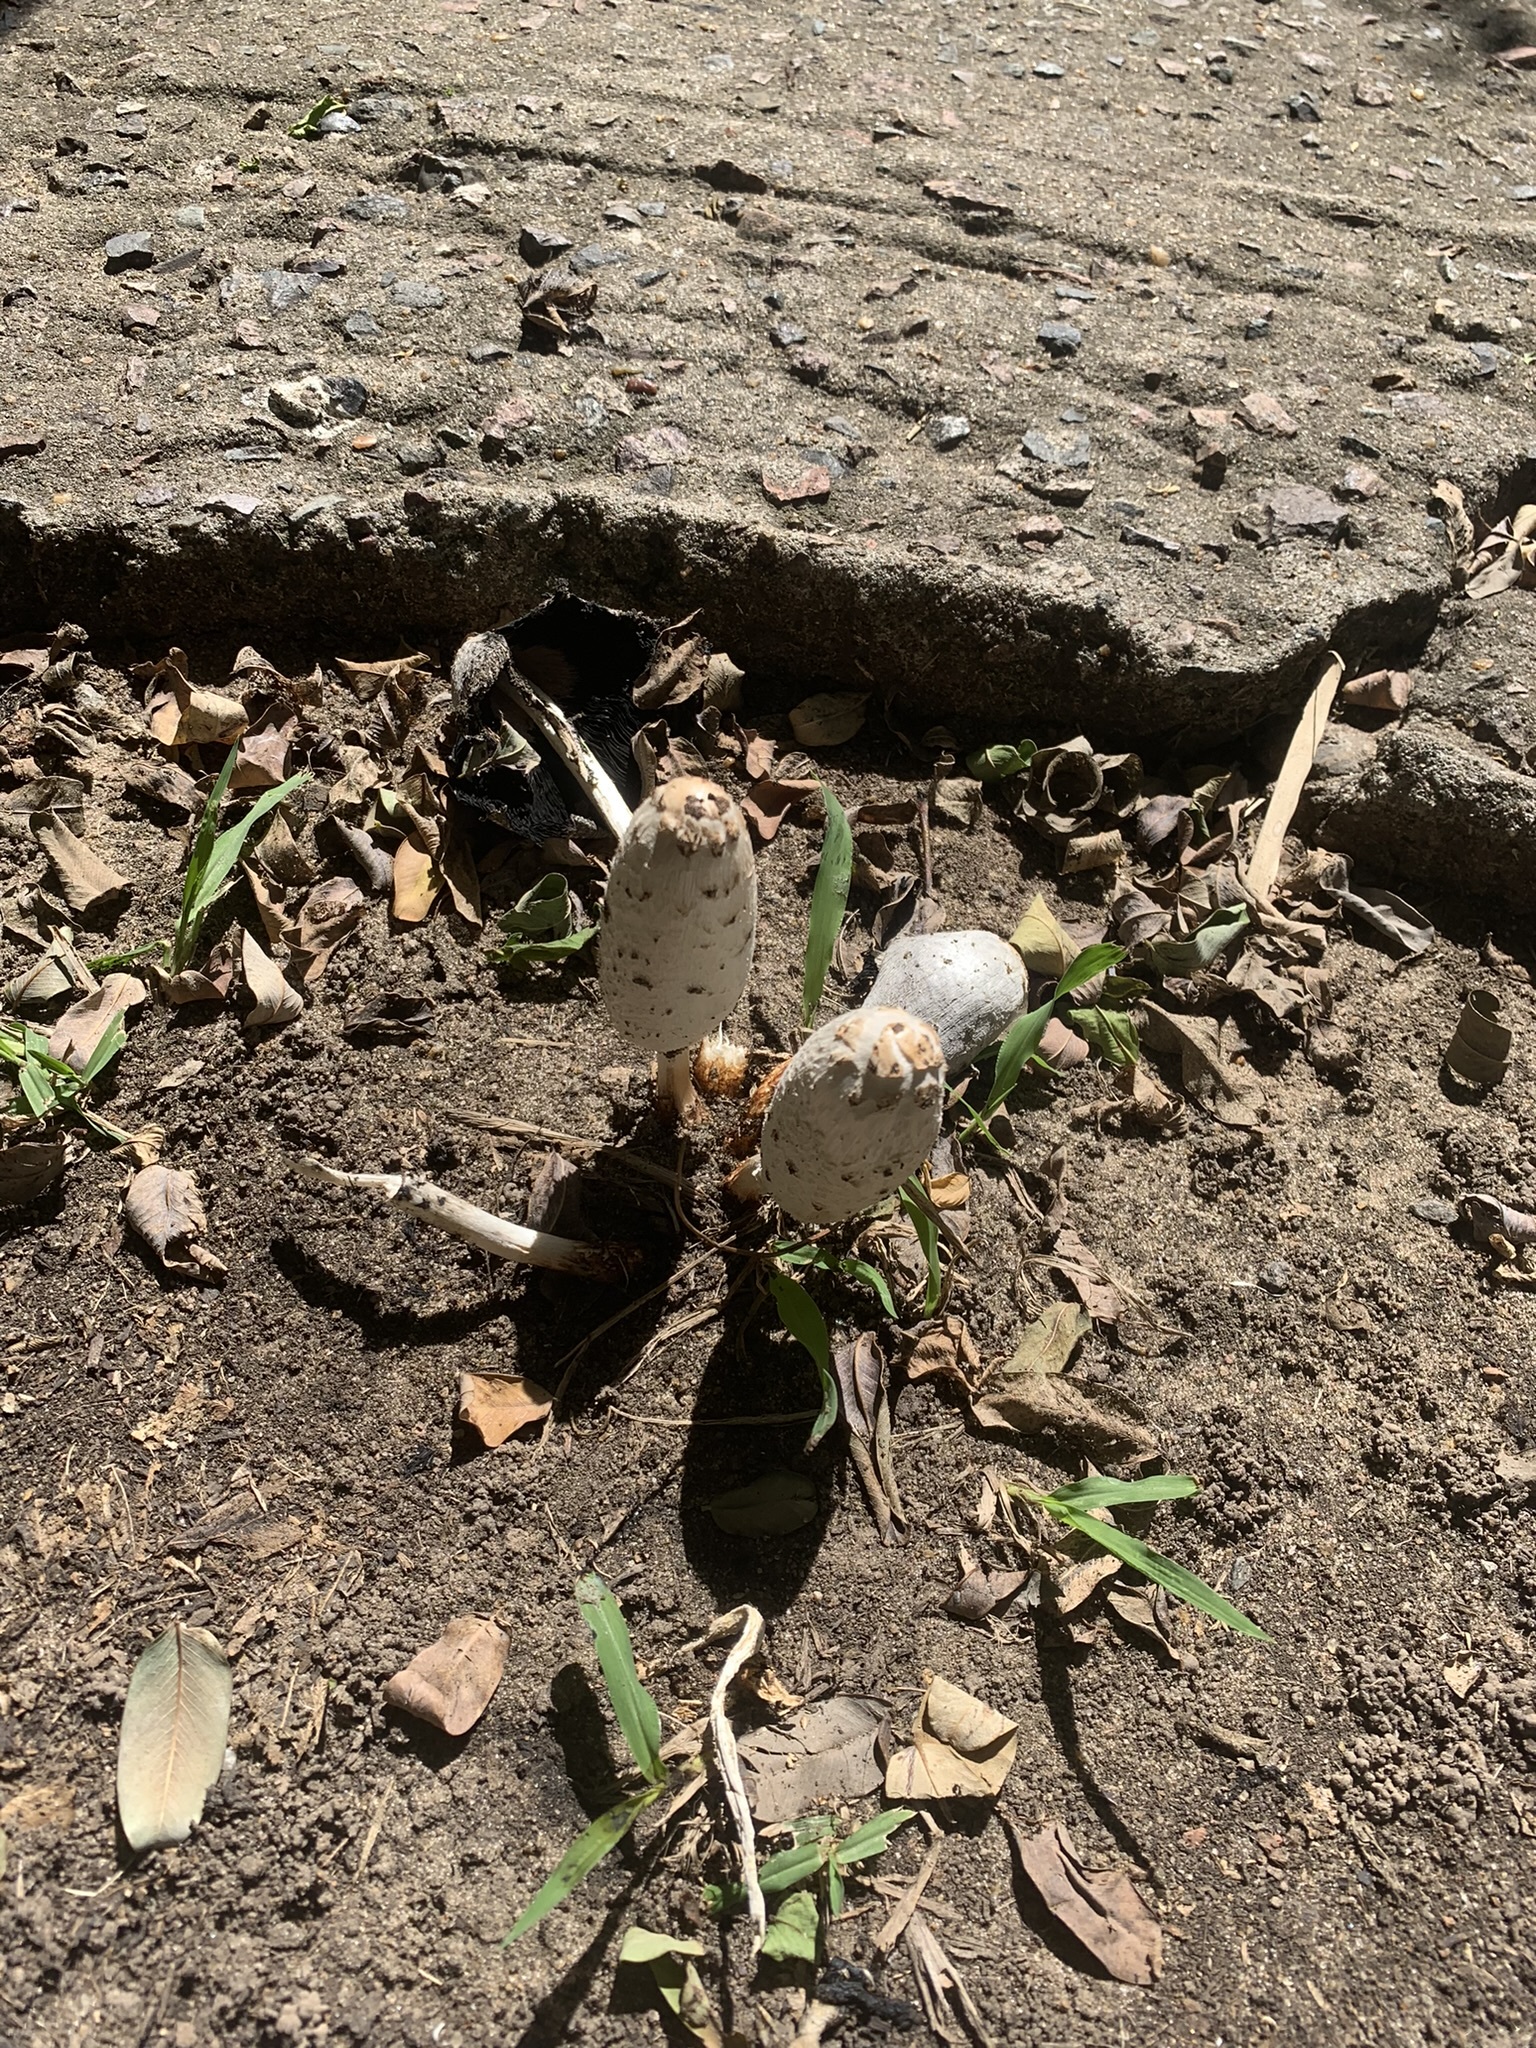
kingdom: Fungi
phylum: Basidiomycota
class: Agaricomycetes
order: Agaricales
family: Agaricaceae
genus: Coprinus
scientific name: Coprinus comatus
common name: Lawyer's wig
